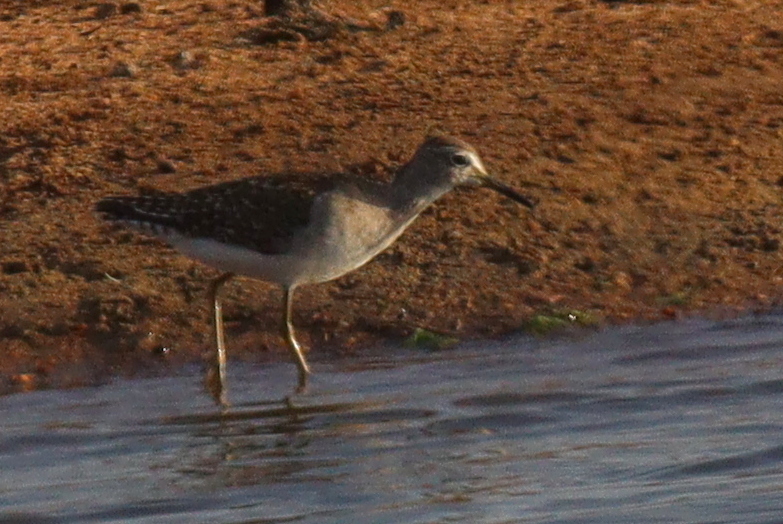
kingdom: Animalia
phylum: Chordata
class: Aves
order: Charadriiformes
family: Scolopacidae
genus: Tringa
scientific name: Tringa glareola
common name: Wood sandpiper
